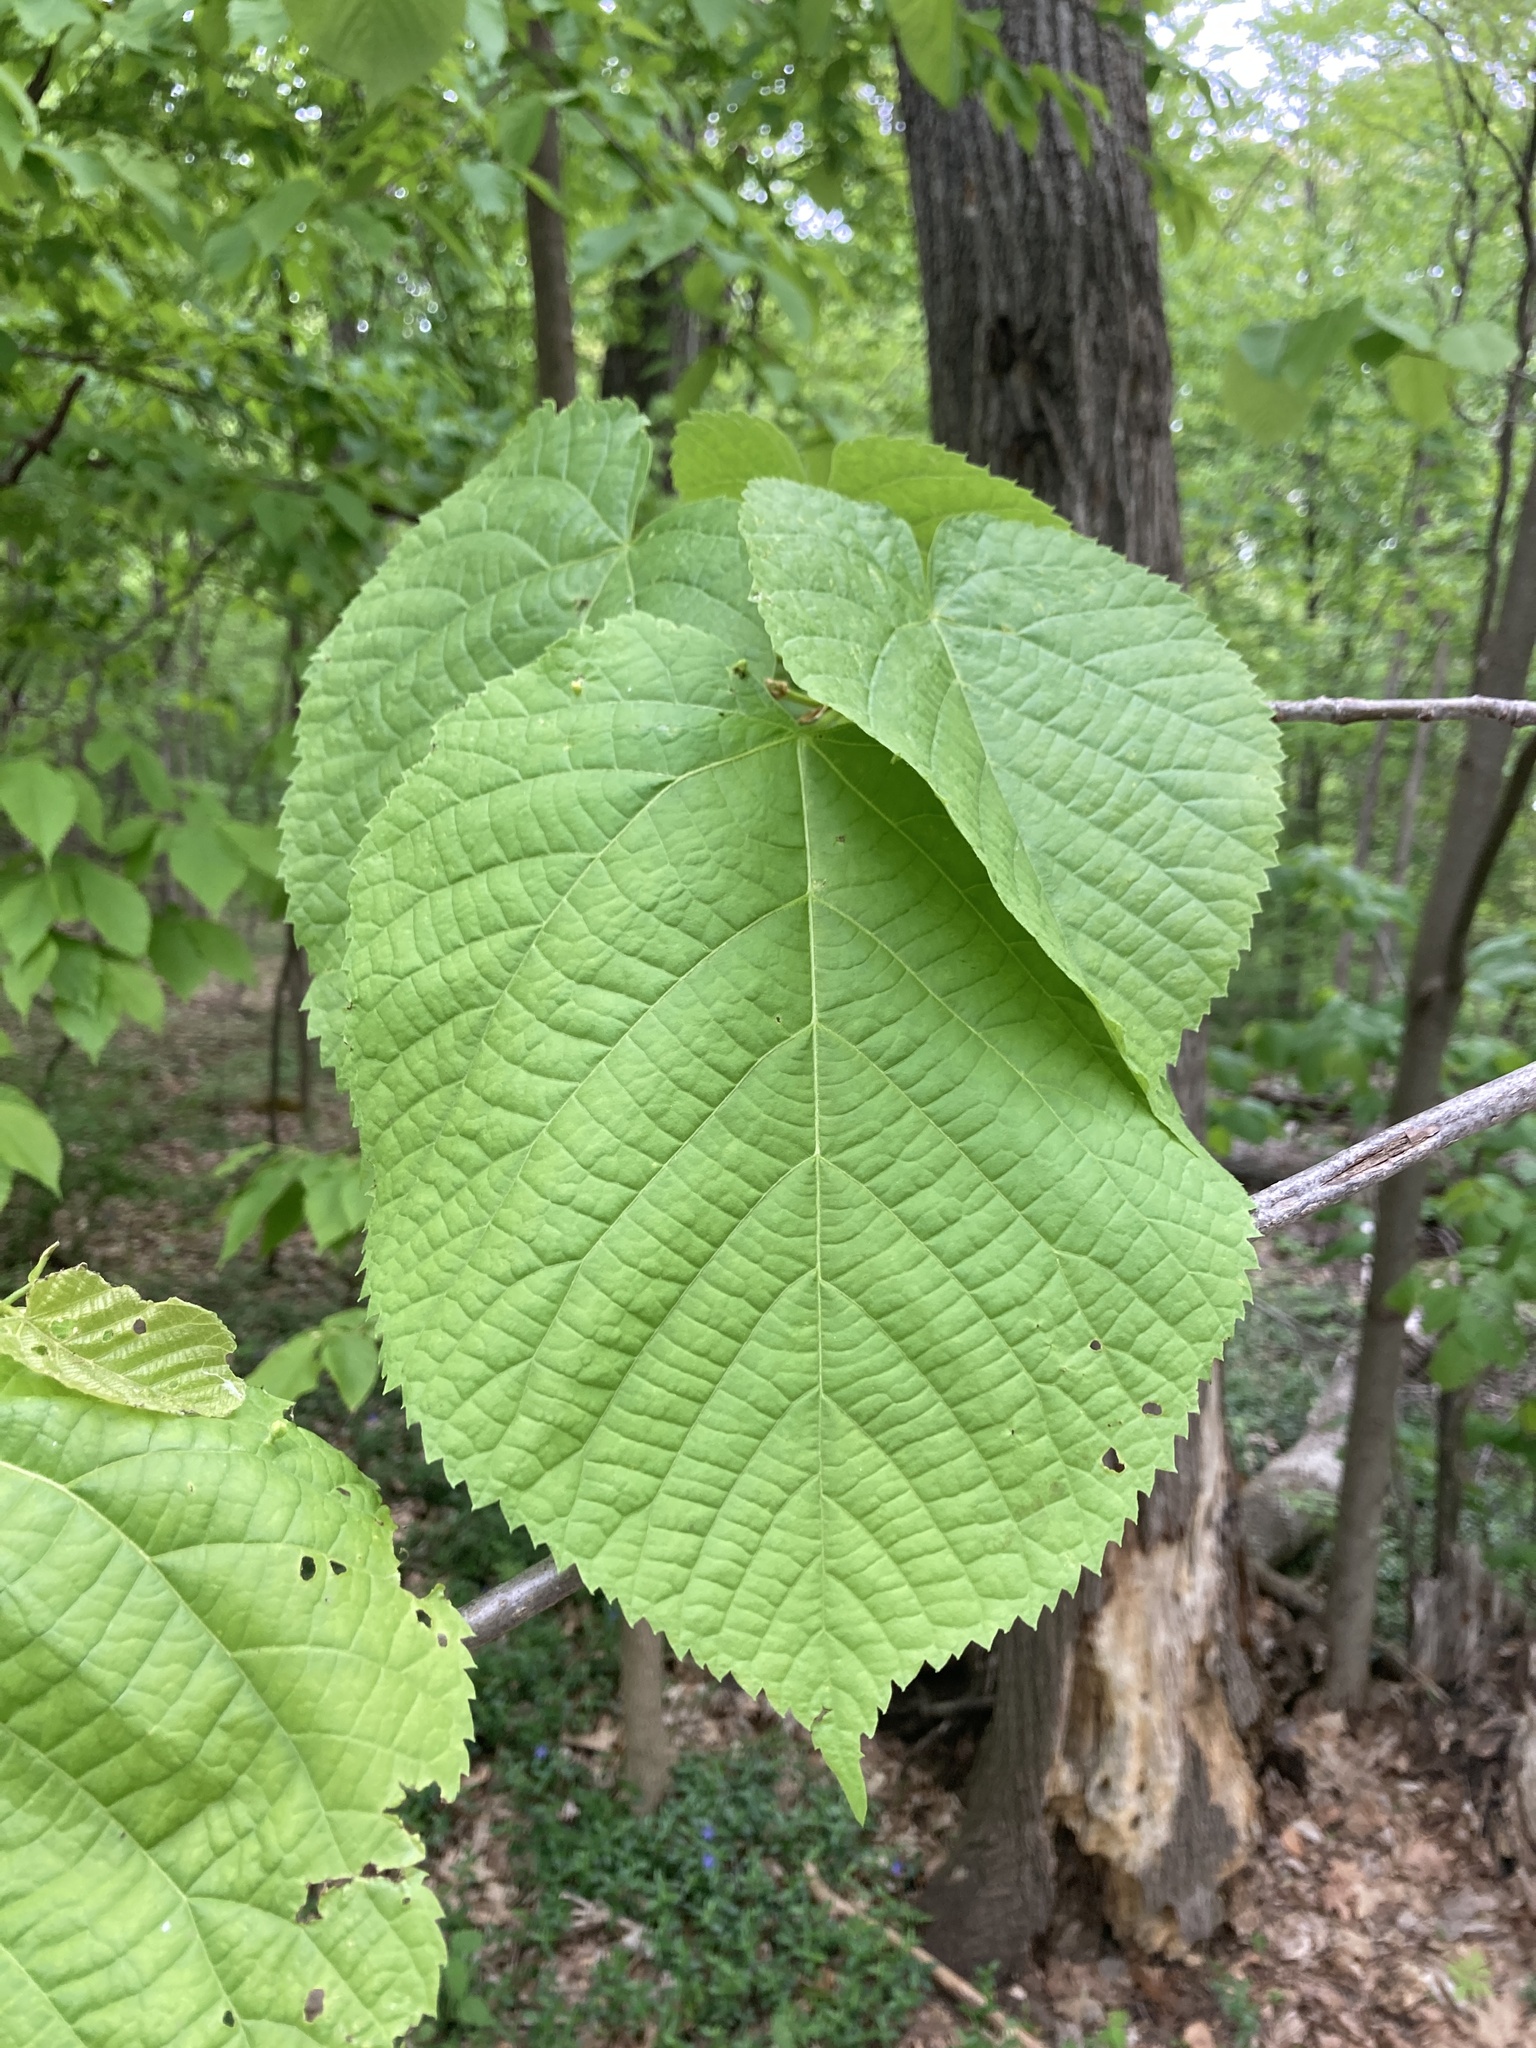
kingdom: Plantae
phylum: Tracheophyta
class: Magnoliopsida
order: Malvales
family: Malvaceae
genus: Tilia
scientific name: Tilia americana
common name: Basswood
